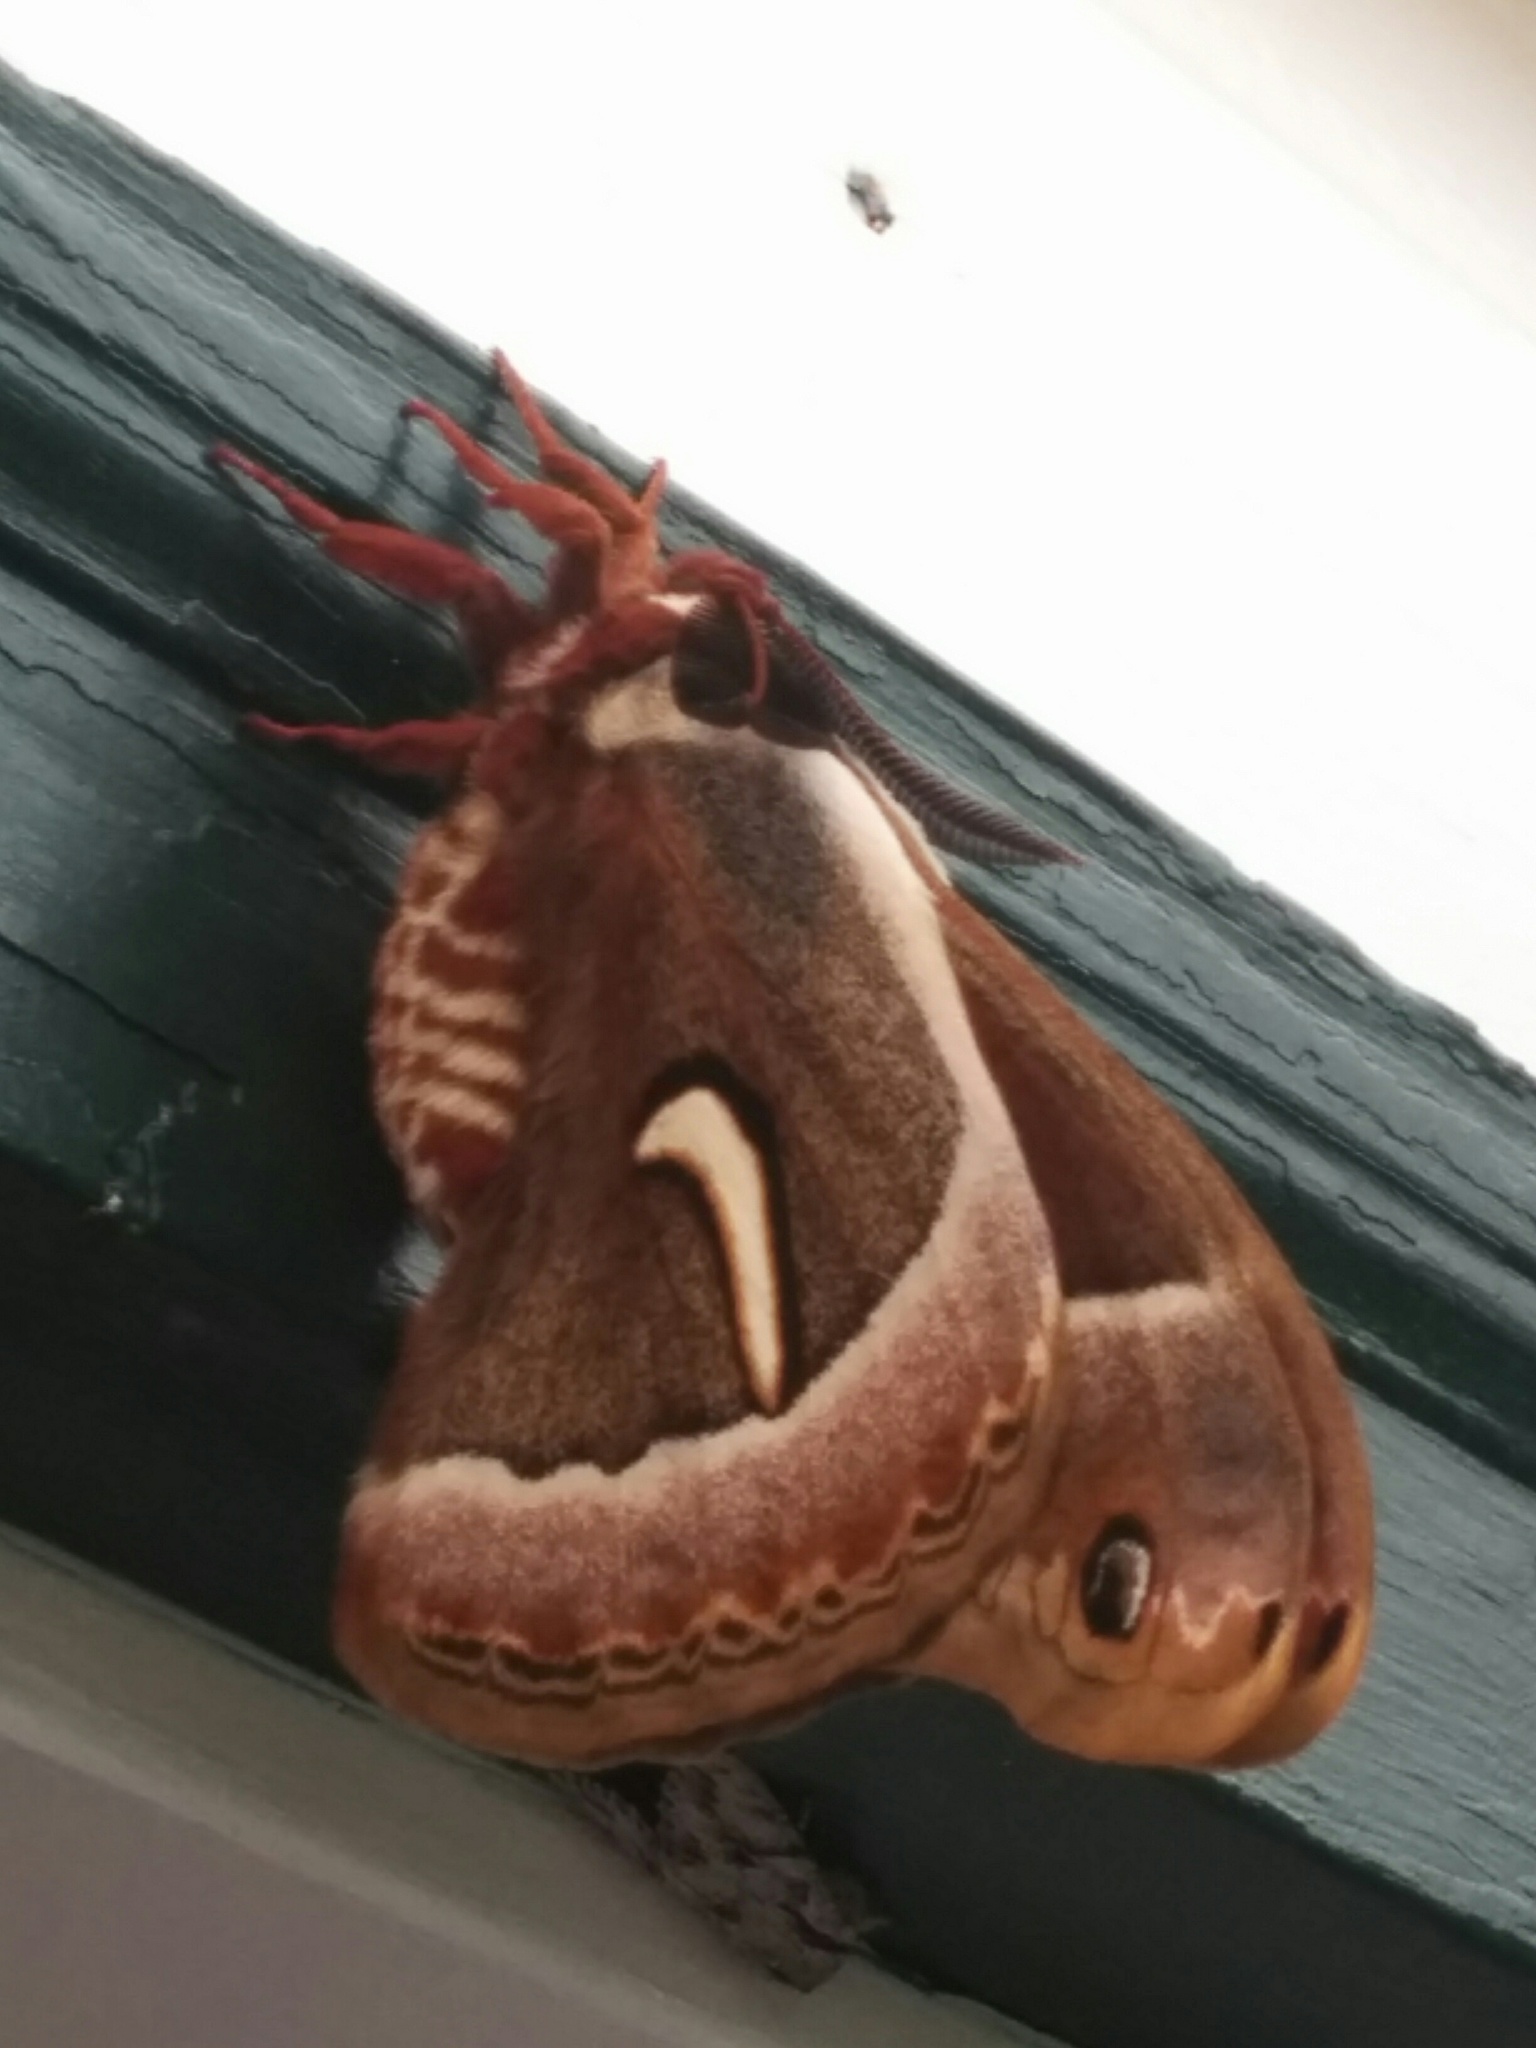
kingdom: Animalia
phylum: Arthropoda
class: Insecta
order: Lepidoptera
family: Saturniidae
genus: Hyalophora
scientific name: Hyalophora euryalus
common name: Ceanothus silkmoth
